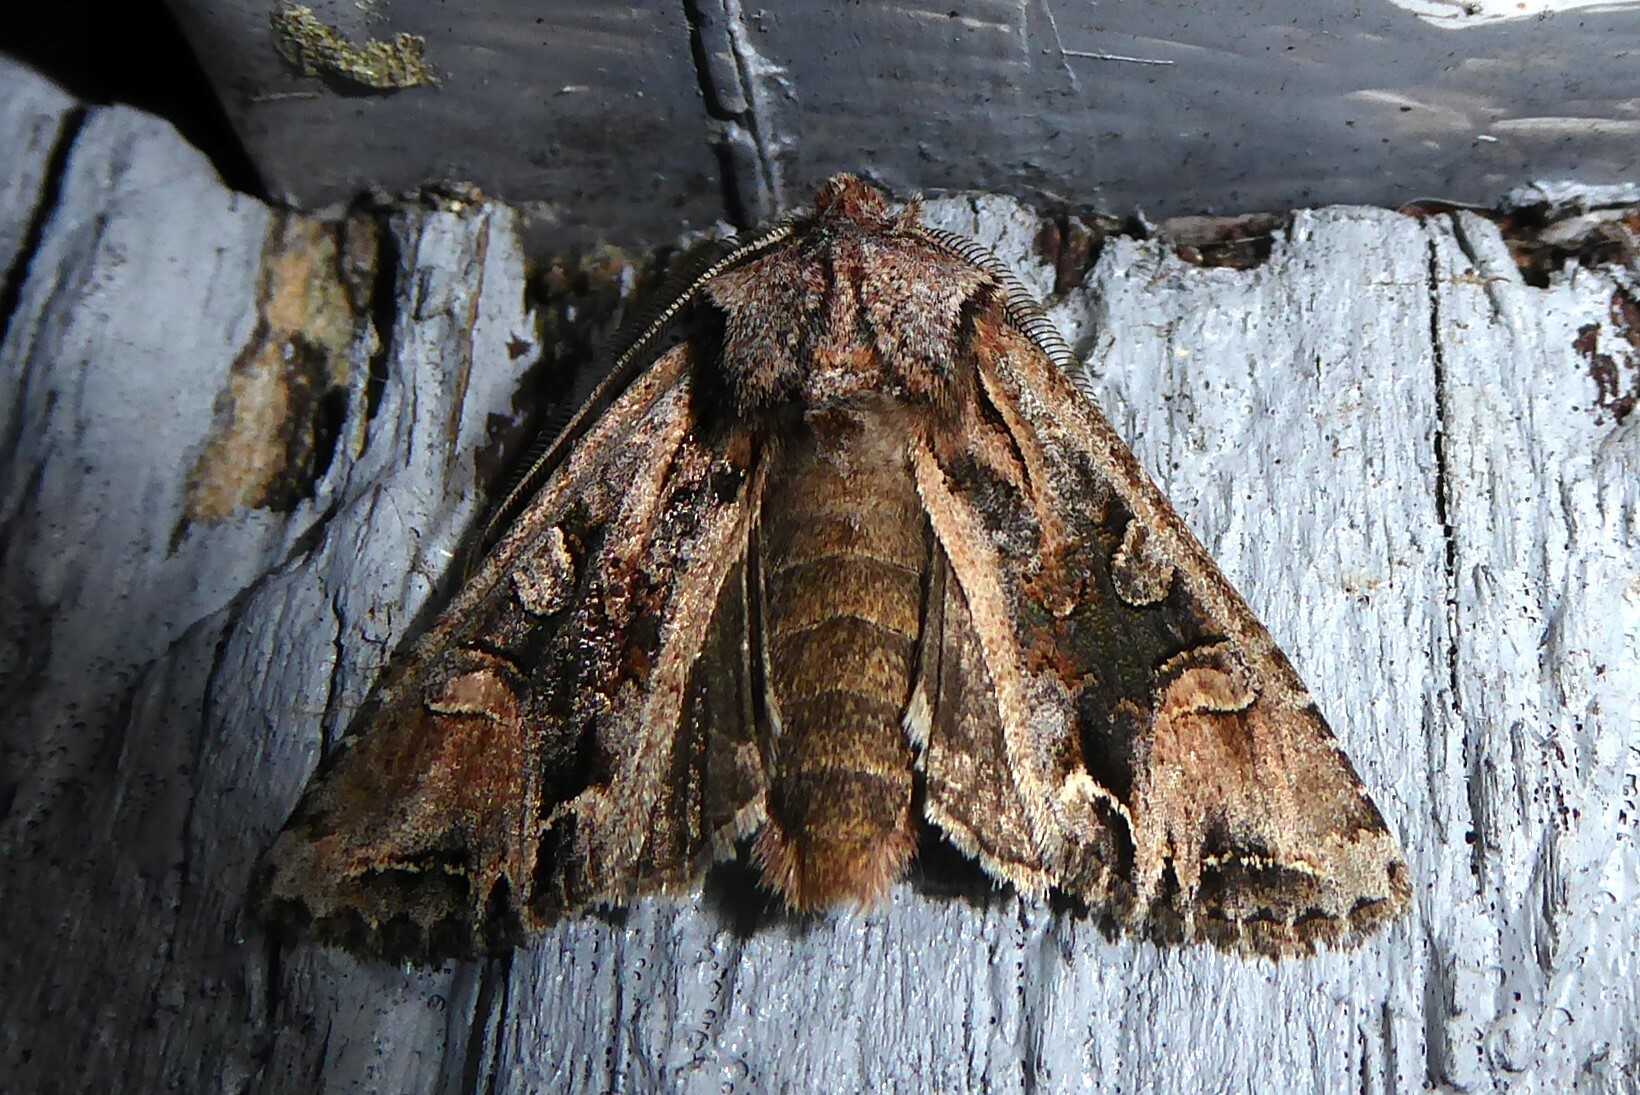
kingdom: Animalia
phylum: Arthropoda
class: Insecta
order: Lepidoptera
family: Noctuidae
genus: Ichneutica
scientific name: Ichneutica
